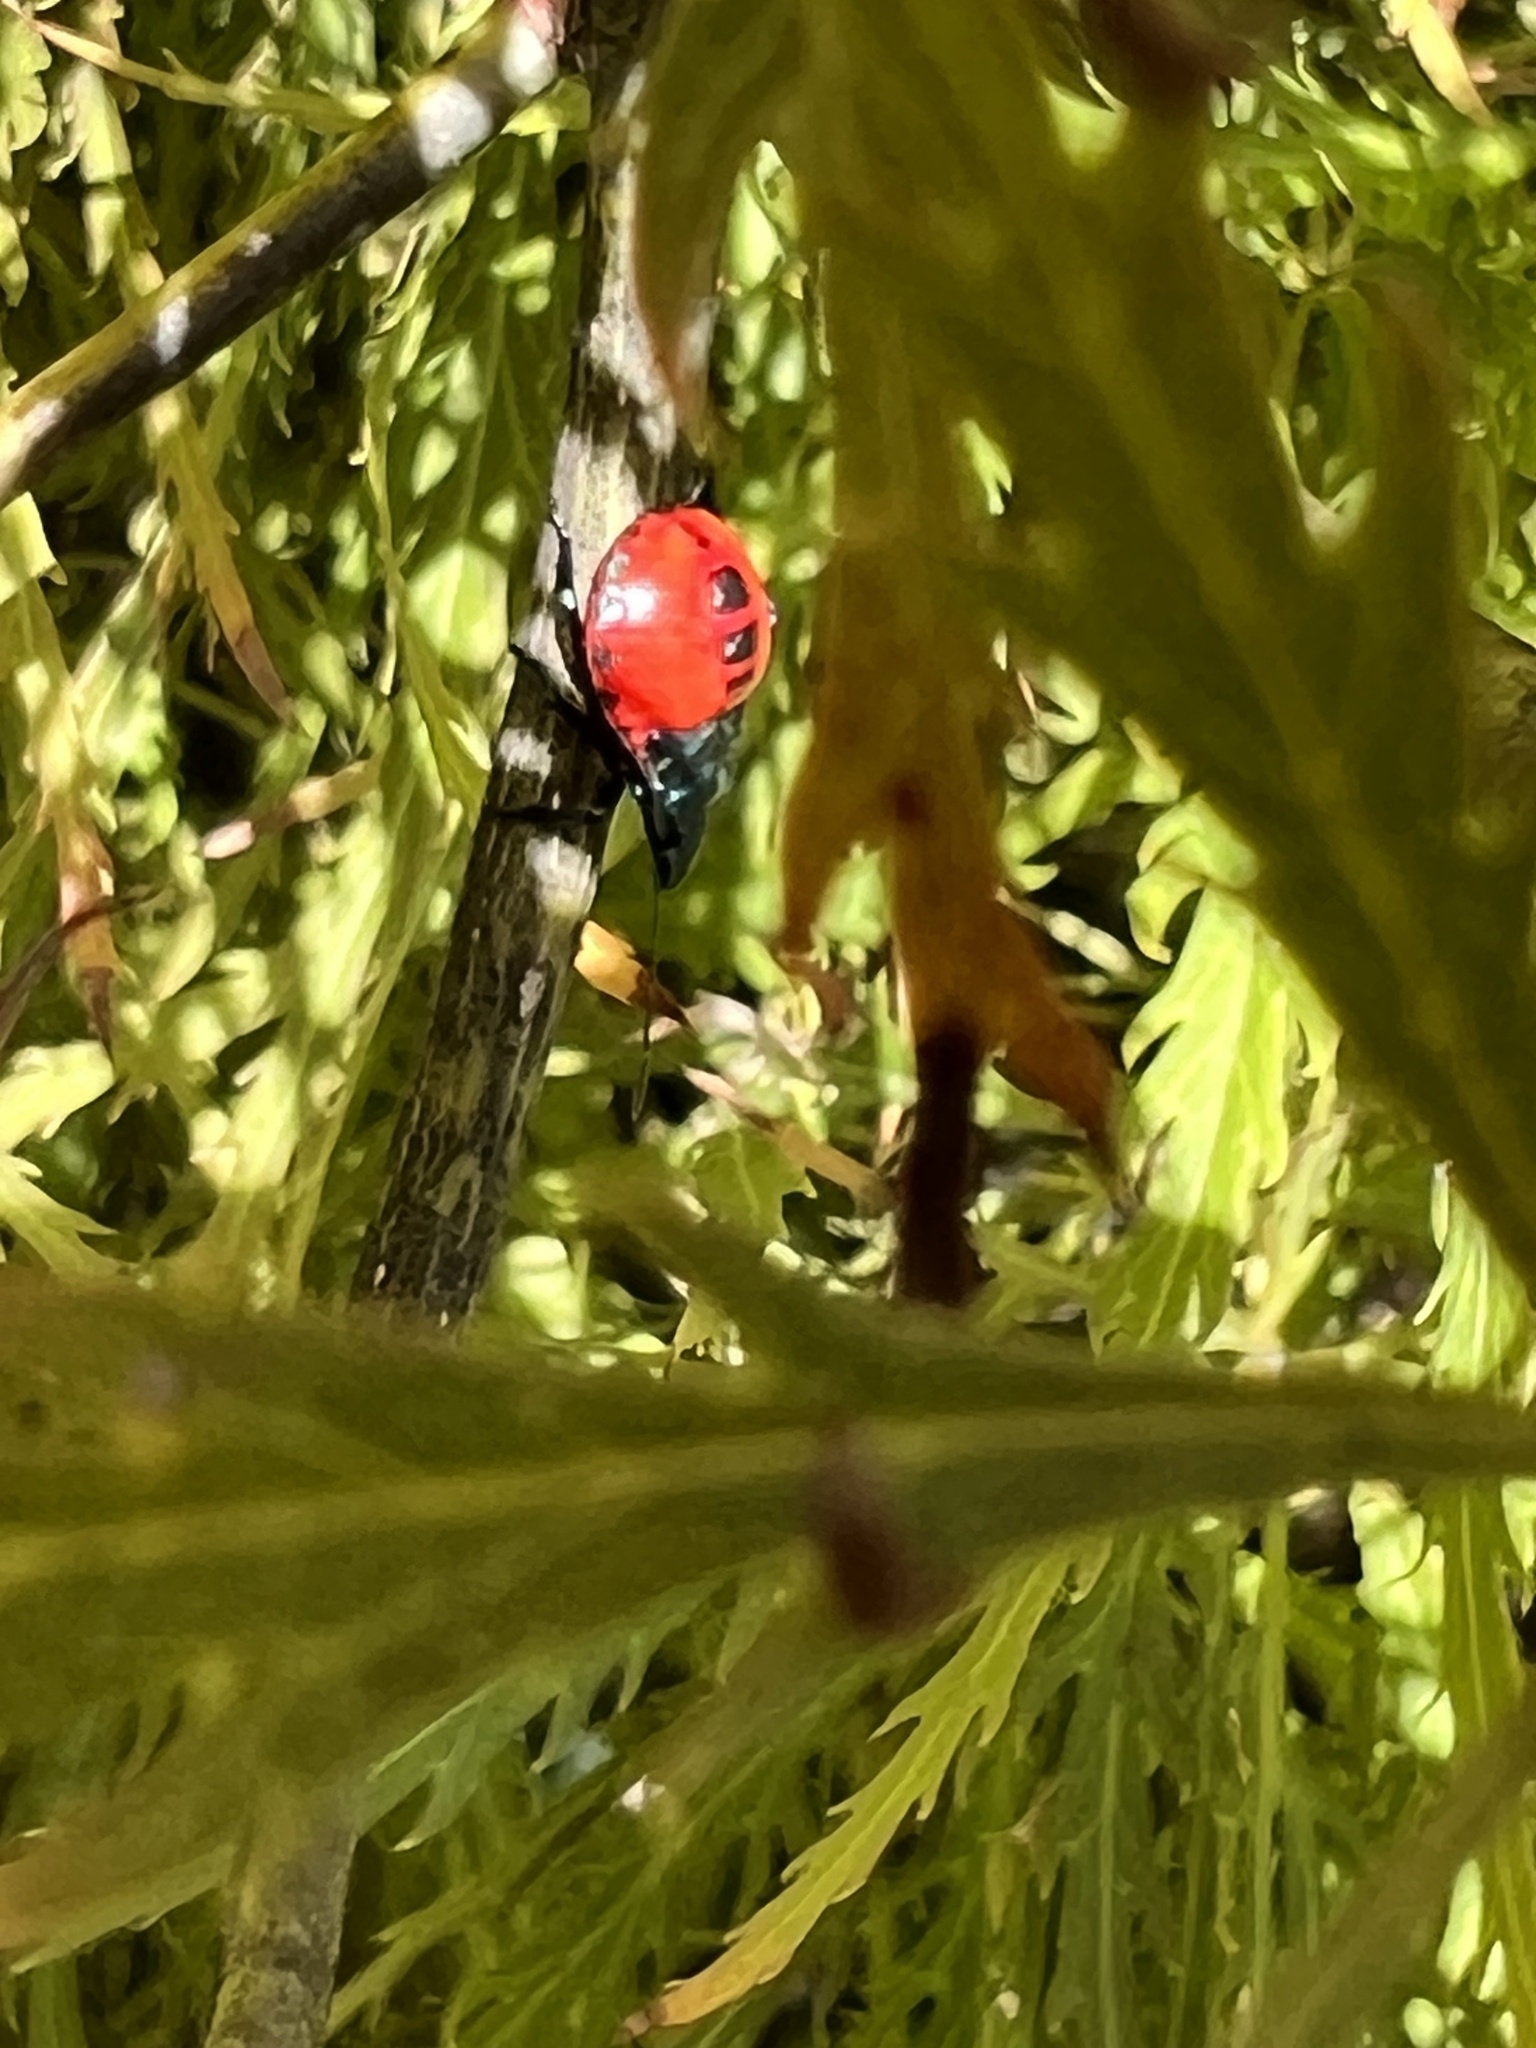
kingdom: Animalia
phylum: Arthropoda
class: Insecta
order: Hemiptera
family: Pentatomidae
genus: Euthyrhynchus
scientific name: Euthyrhynchus floridanus
